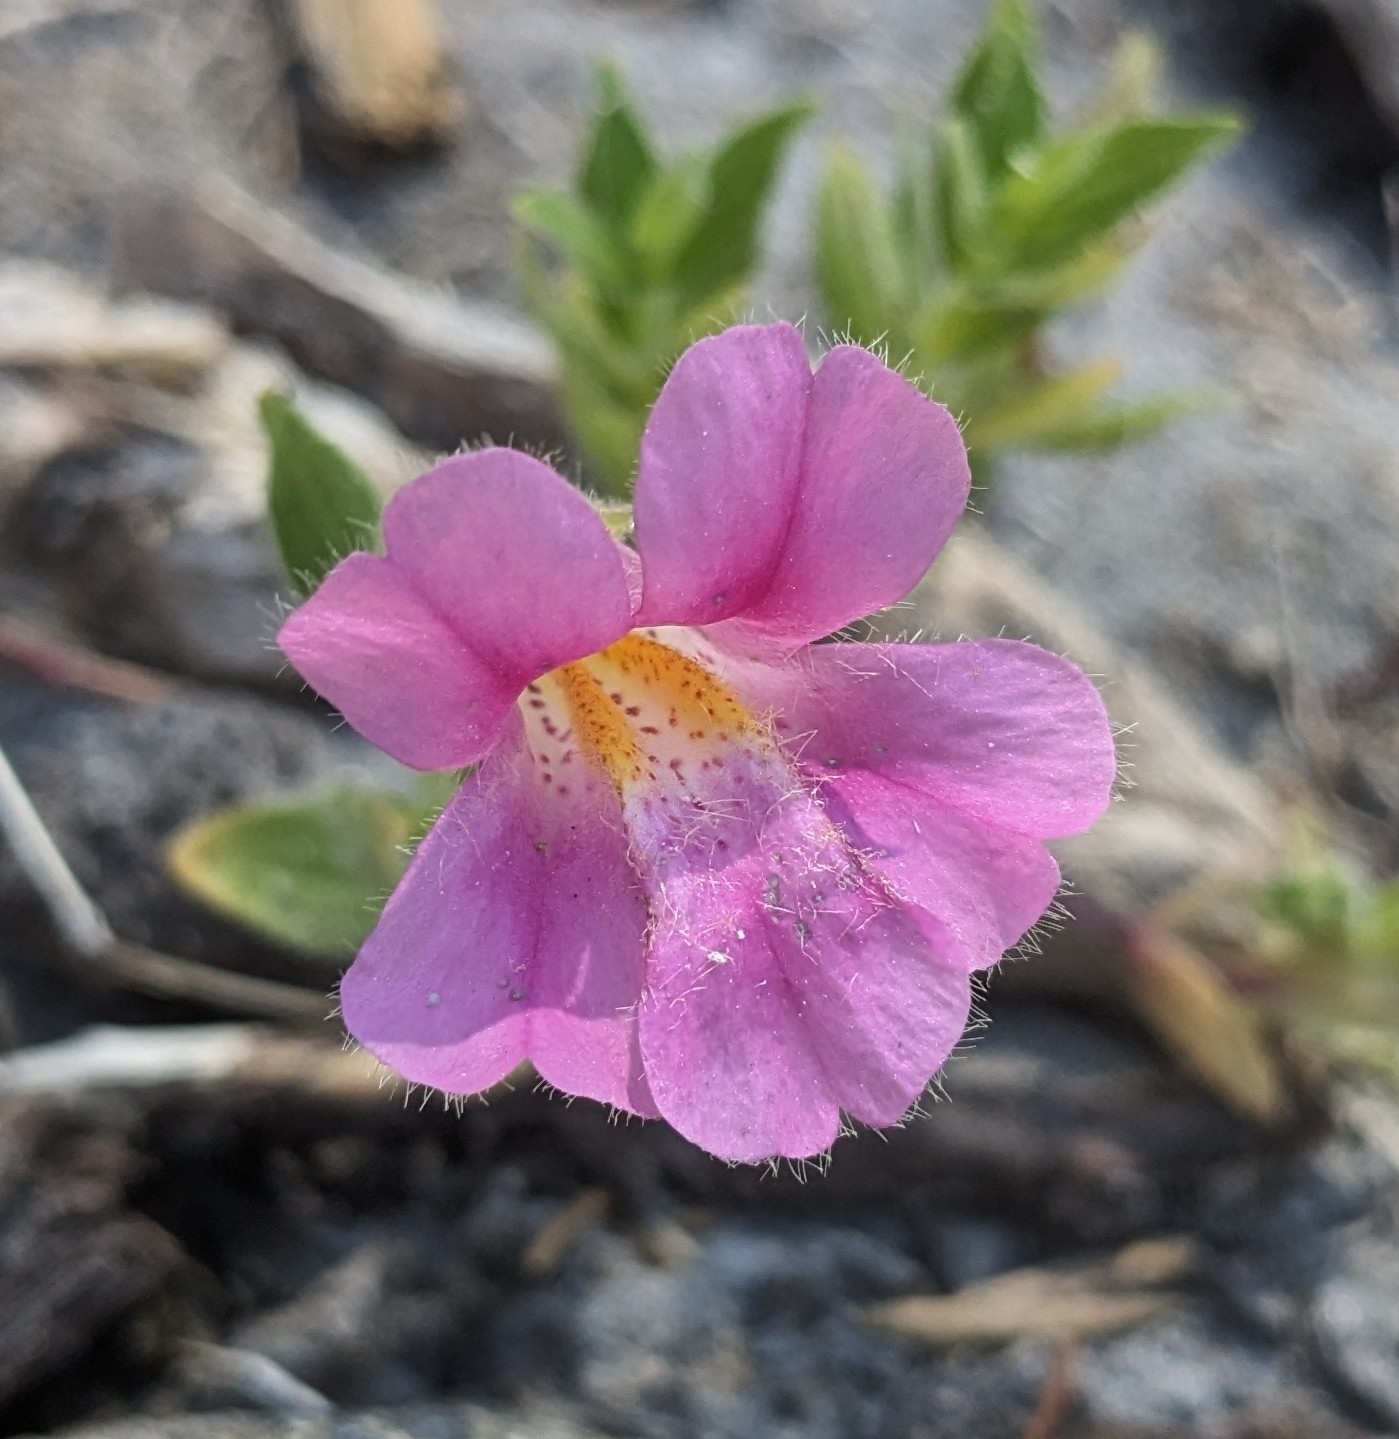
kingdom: Plantae
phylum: Tracheophyta
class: Magnoliopsida
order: Lamiales
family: Phrymaceae
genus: Erythranthe
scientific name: Erythranthe lewisii
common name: Lewis's monkey-flower
